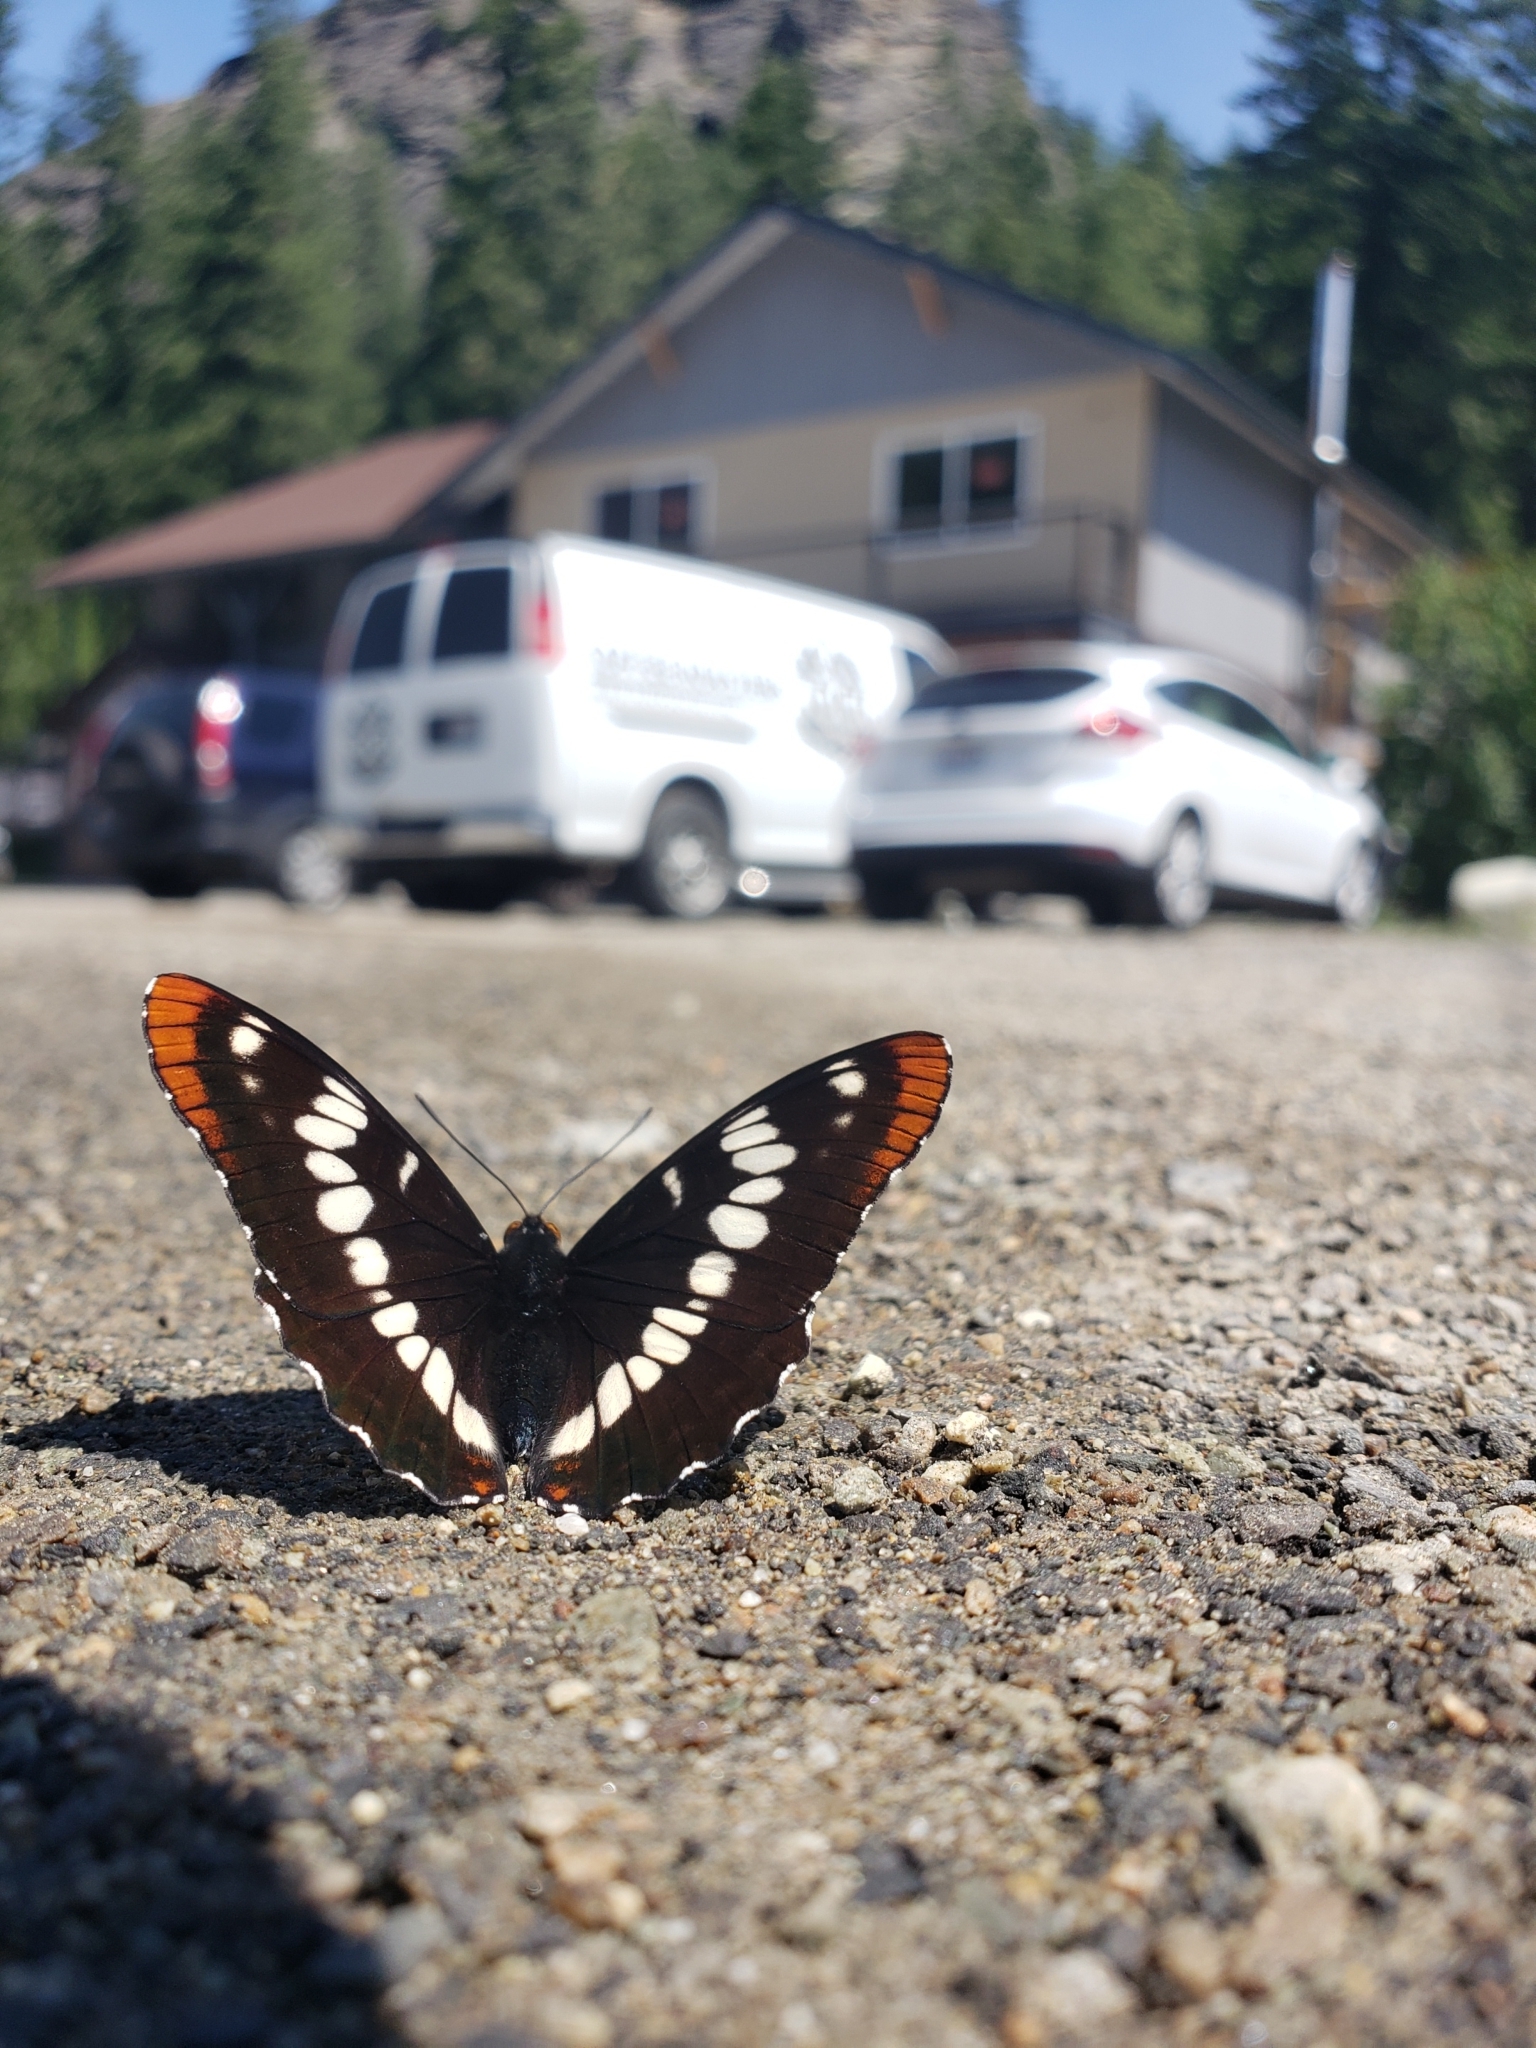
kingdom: Animalia
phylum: Arthropoda
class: Insecta
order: Lepidoptera
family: Nymphalidae
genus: Limenitis
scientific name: Limenitis lorquini
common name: Lorquin's admiral
